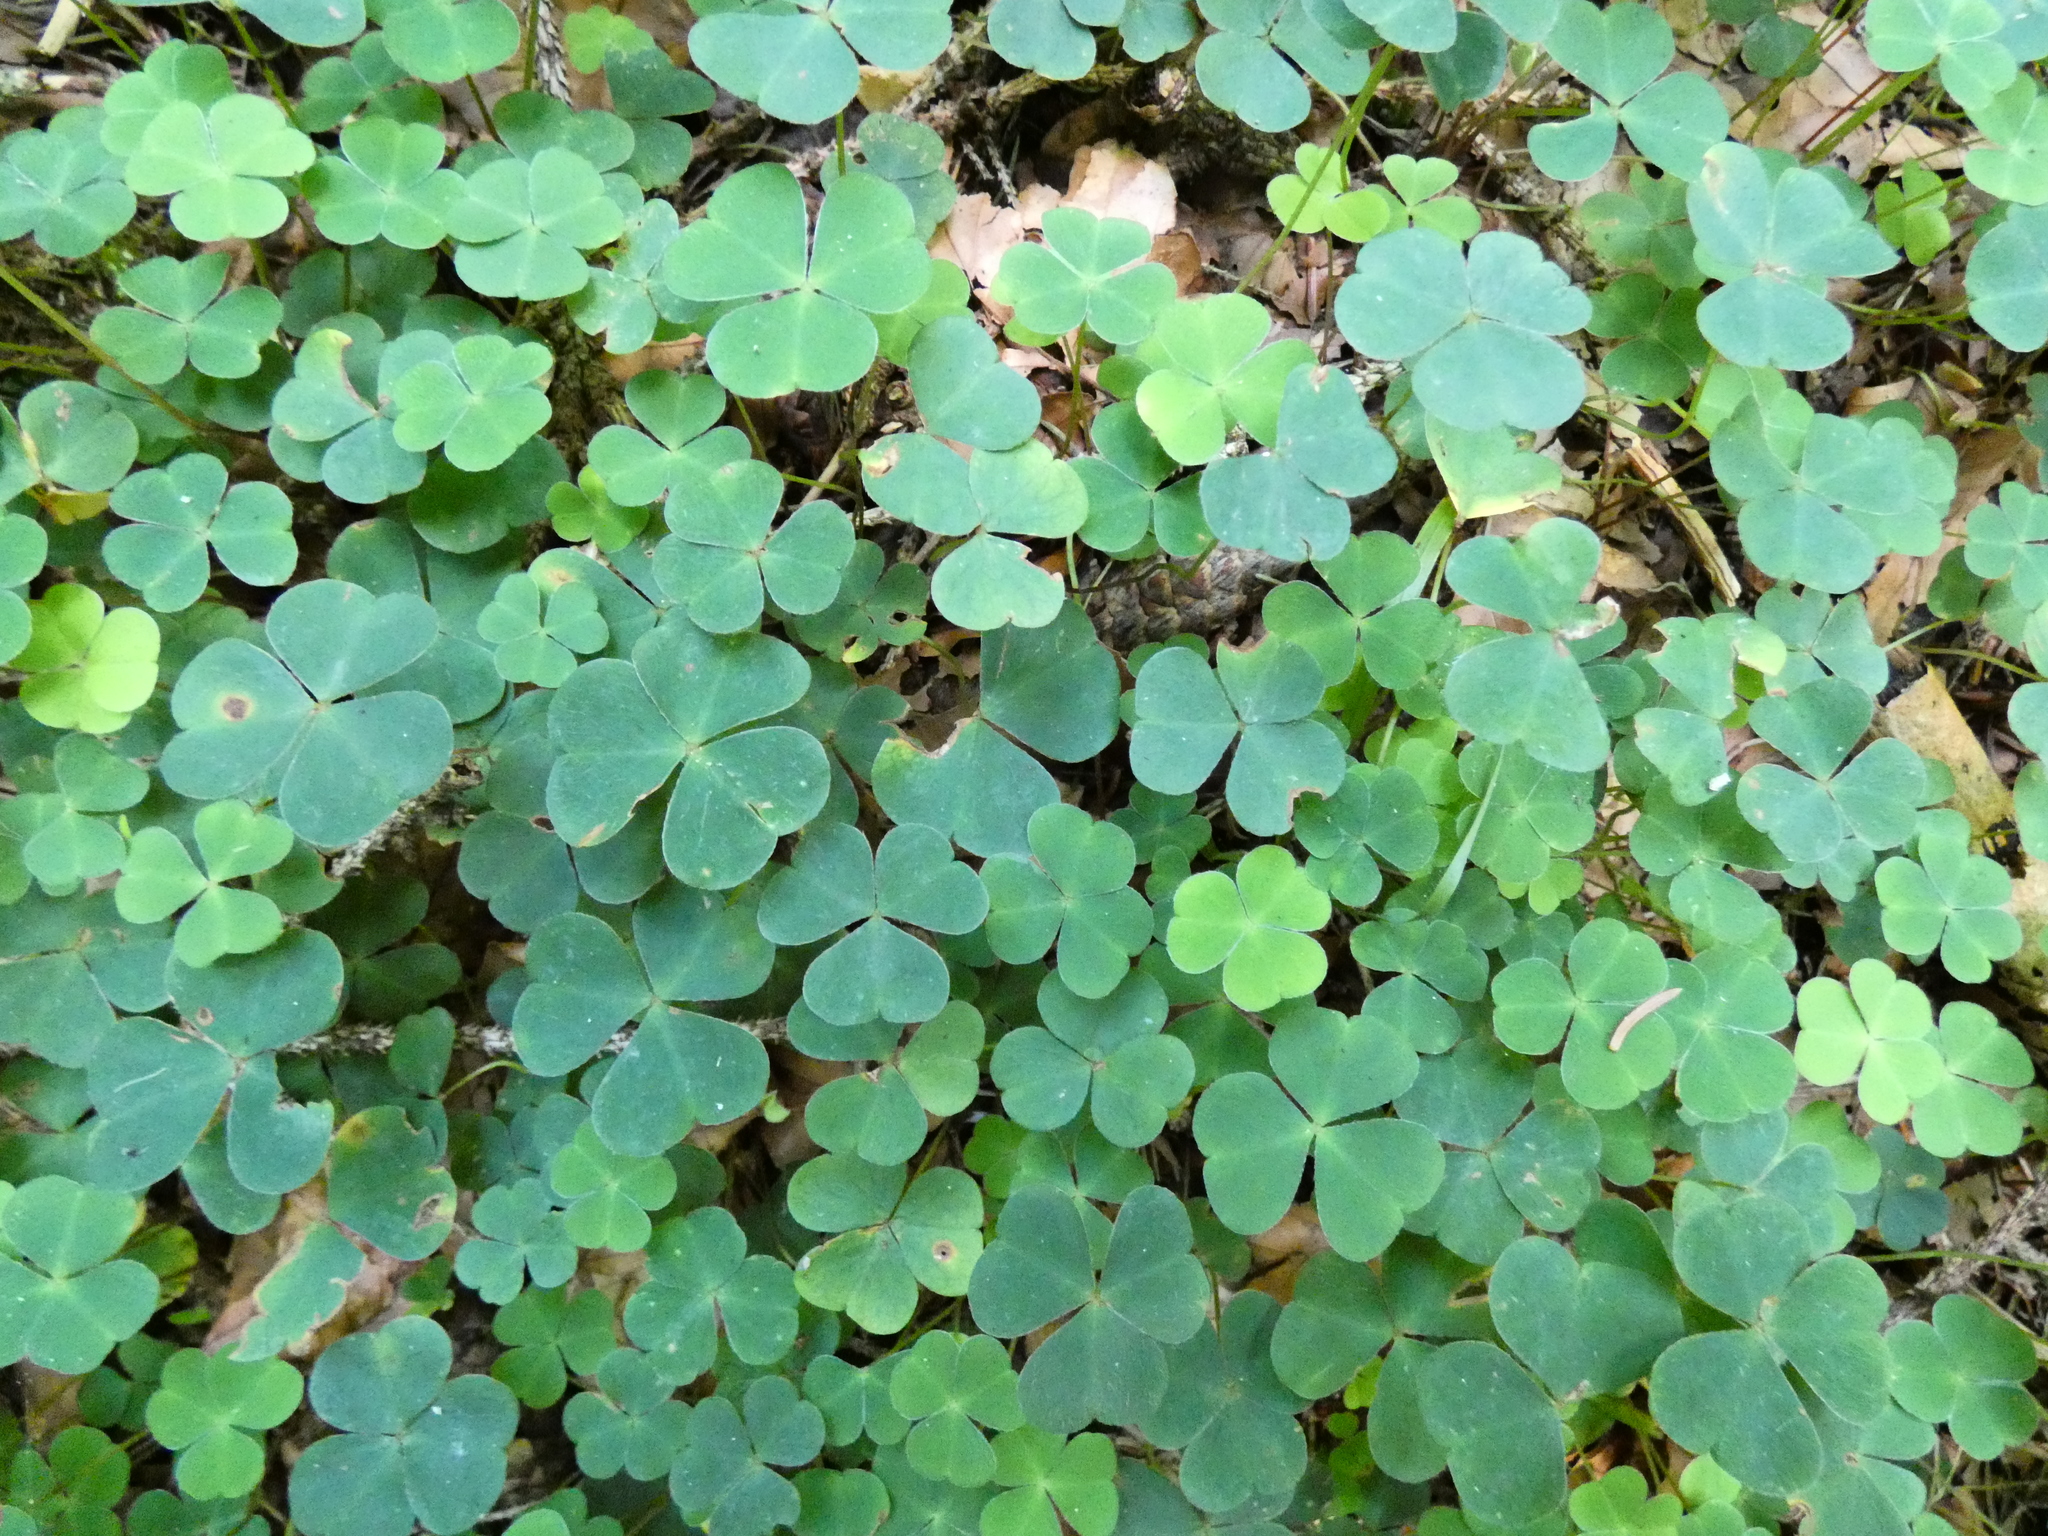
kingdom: Plantae
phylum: Tracheophyta
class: Magnoliopsida
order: Oxalidales
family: Oxalidaceae
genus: Oxalis
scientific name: Oxalis acetosella
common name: Wood-sorrel
